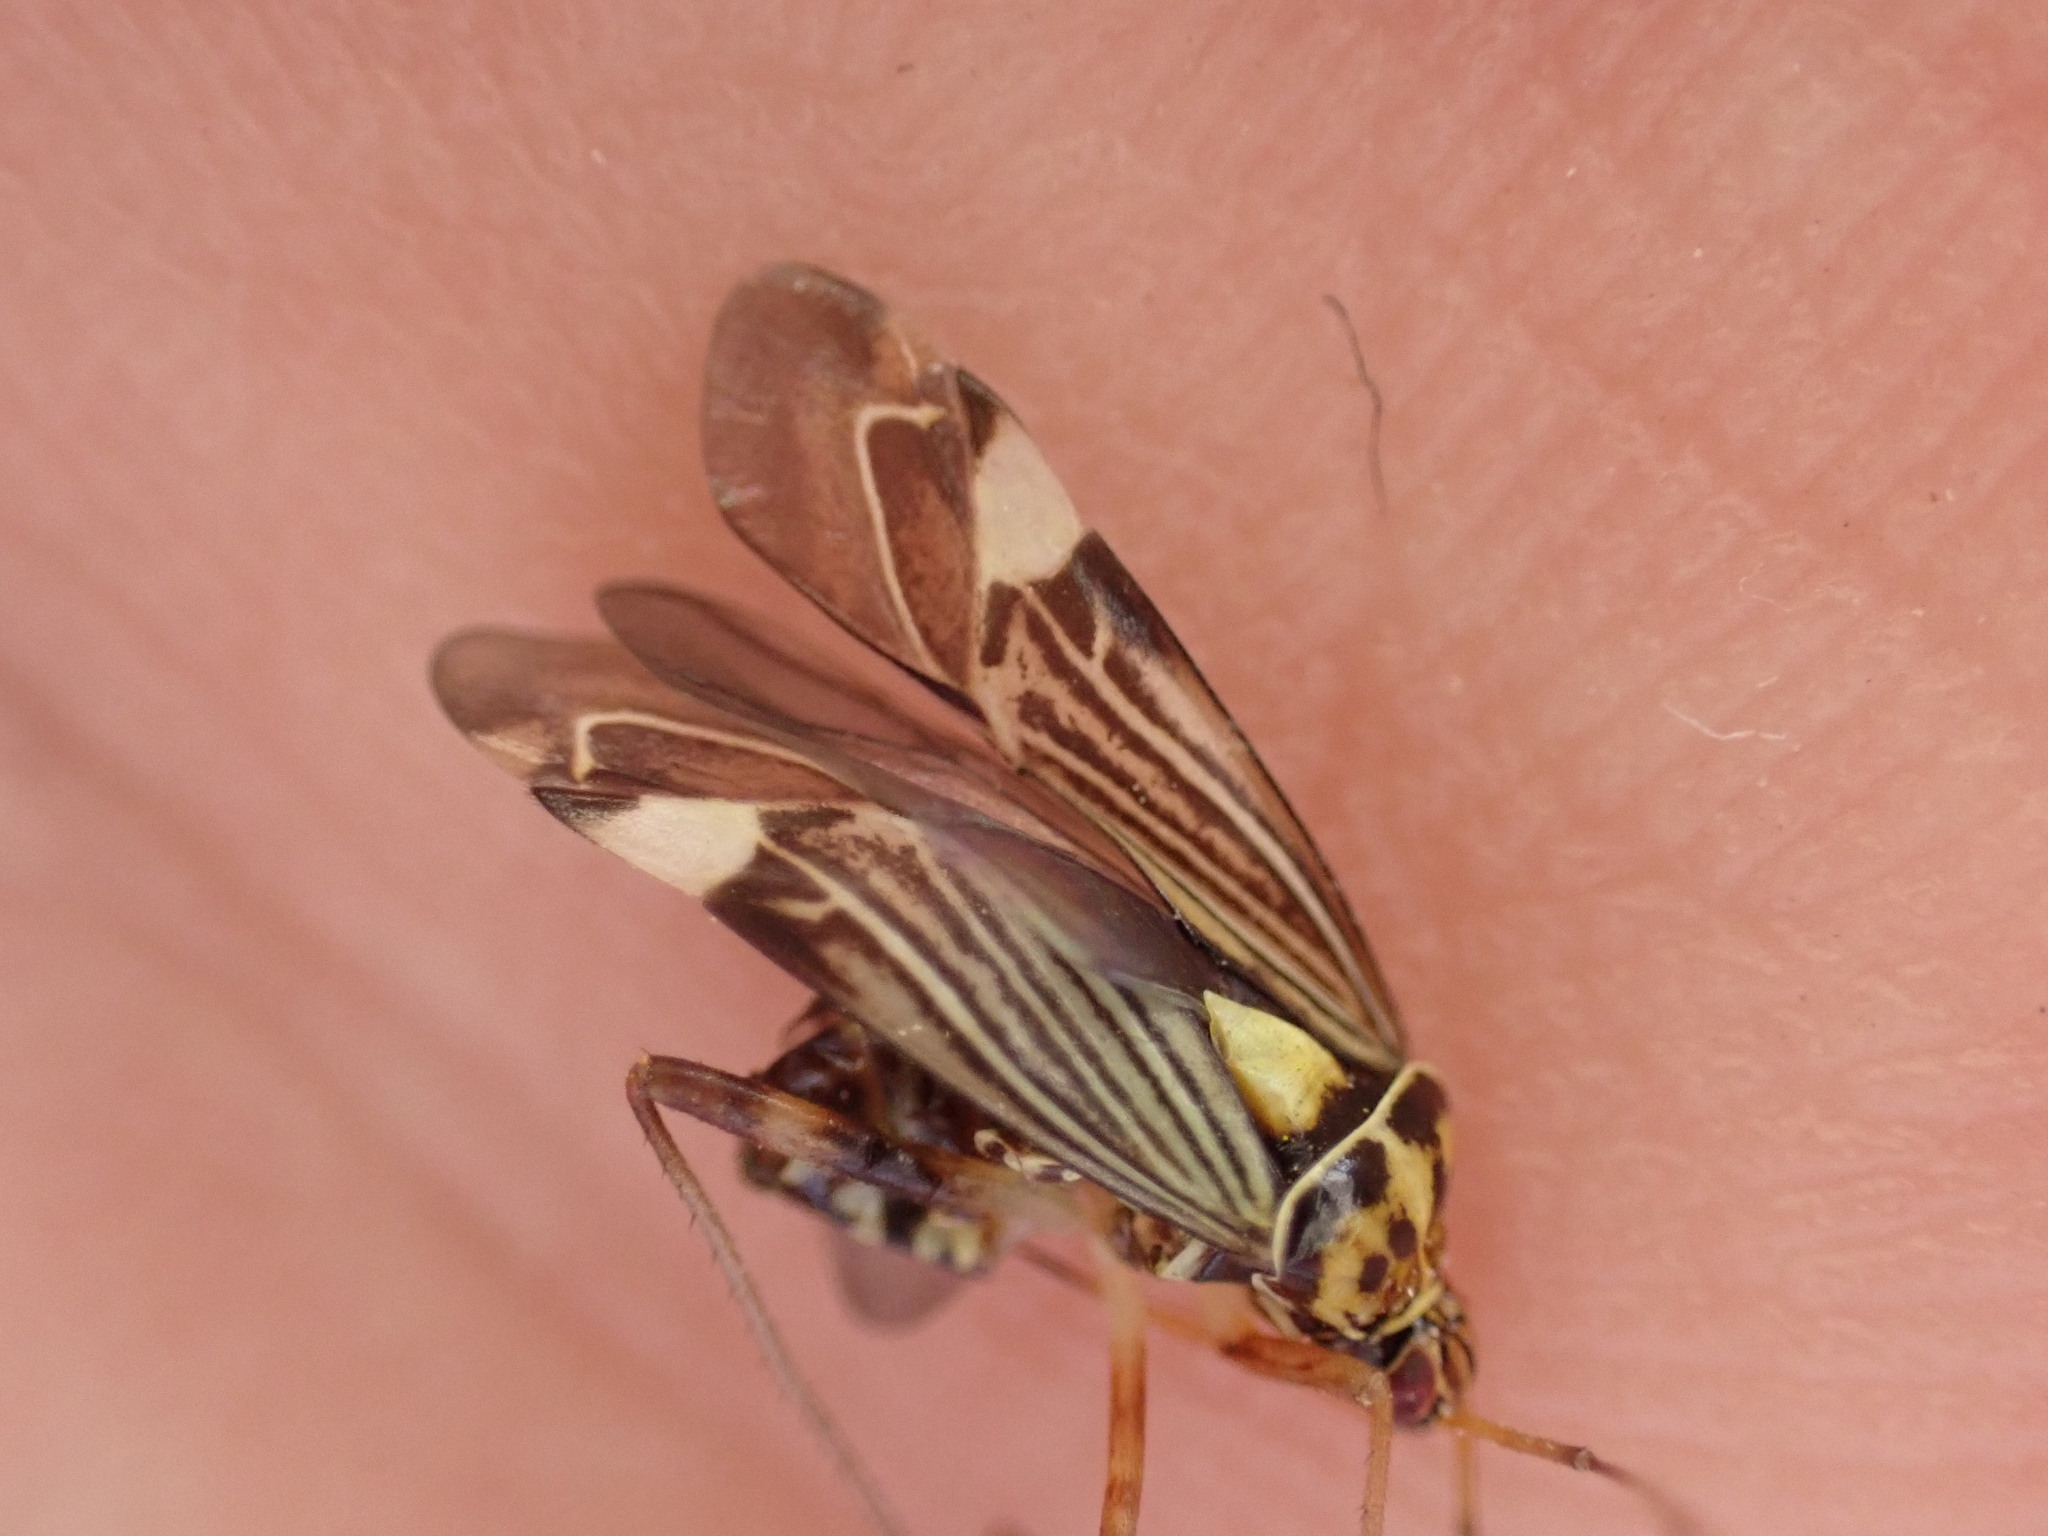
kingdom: Animalia
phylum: Arthropoda
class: Insecta
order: Hemiptera
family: Miridae
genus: Rhabdomiris
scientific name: Rhabdomiris striatellus
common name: Plant bug
